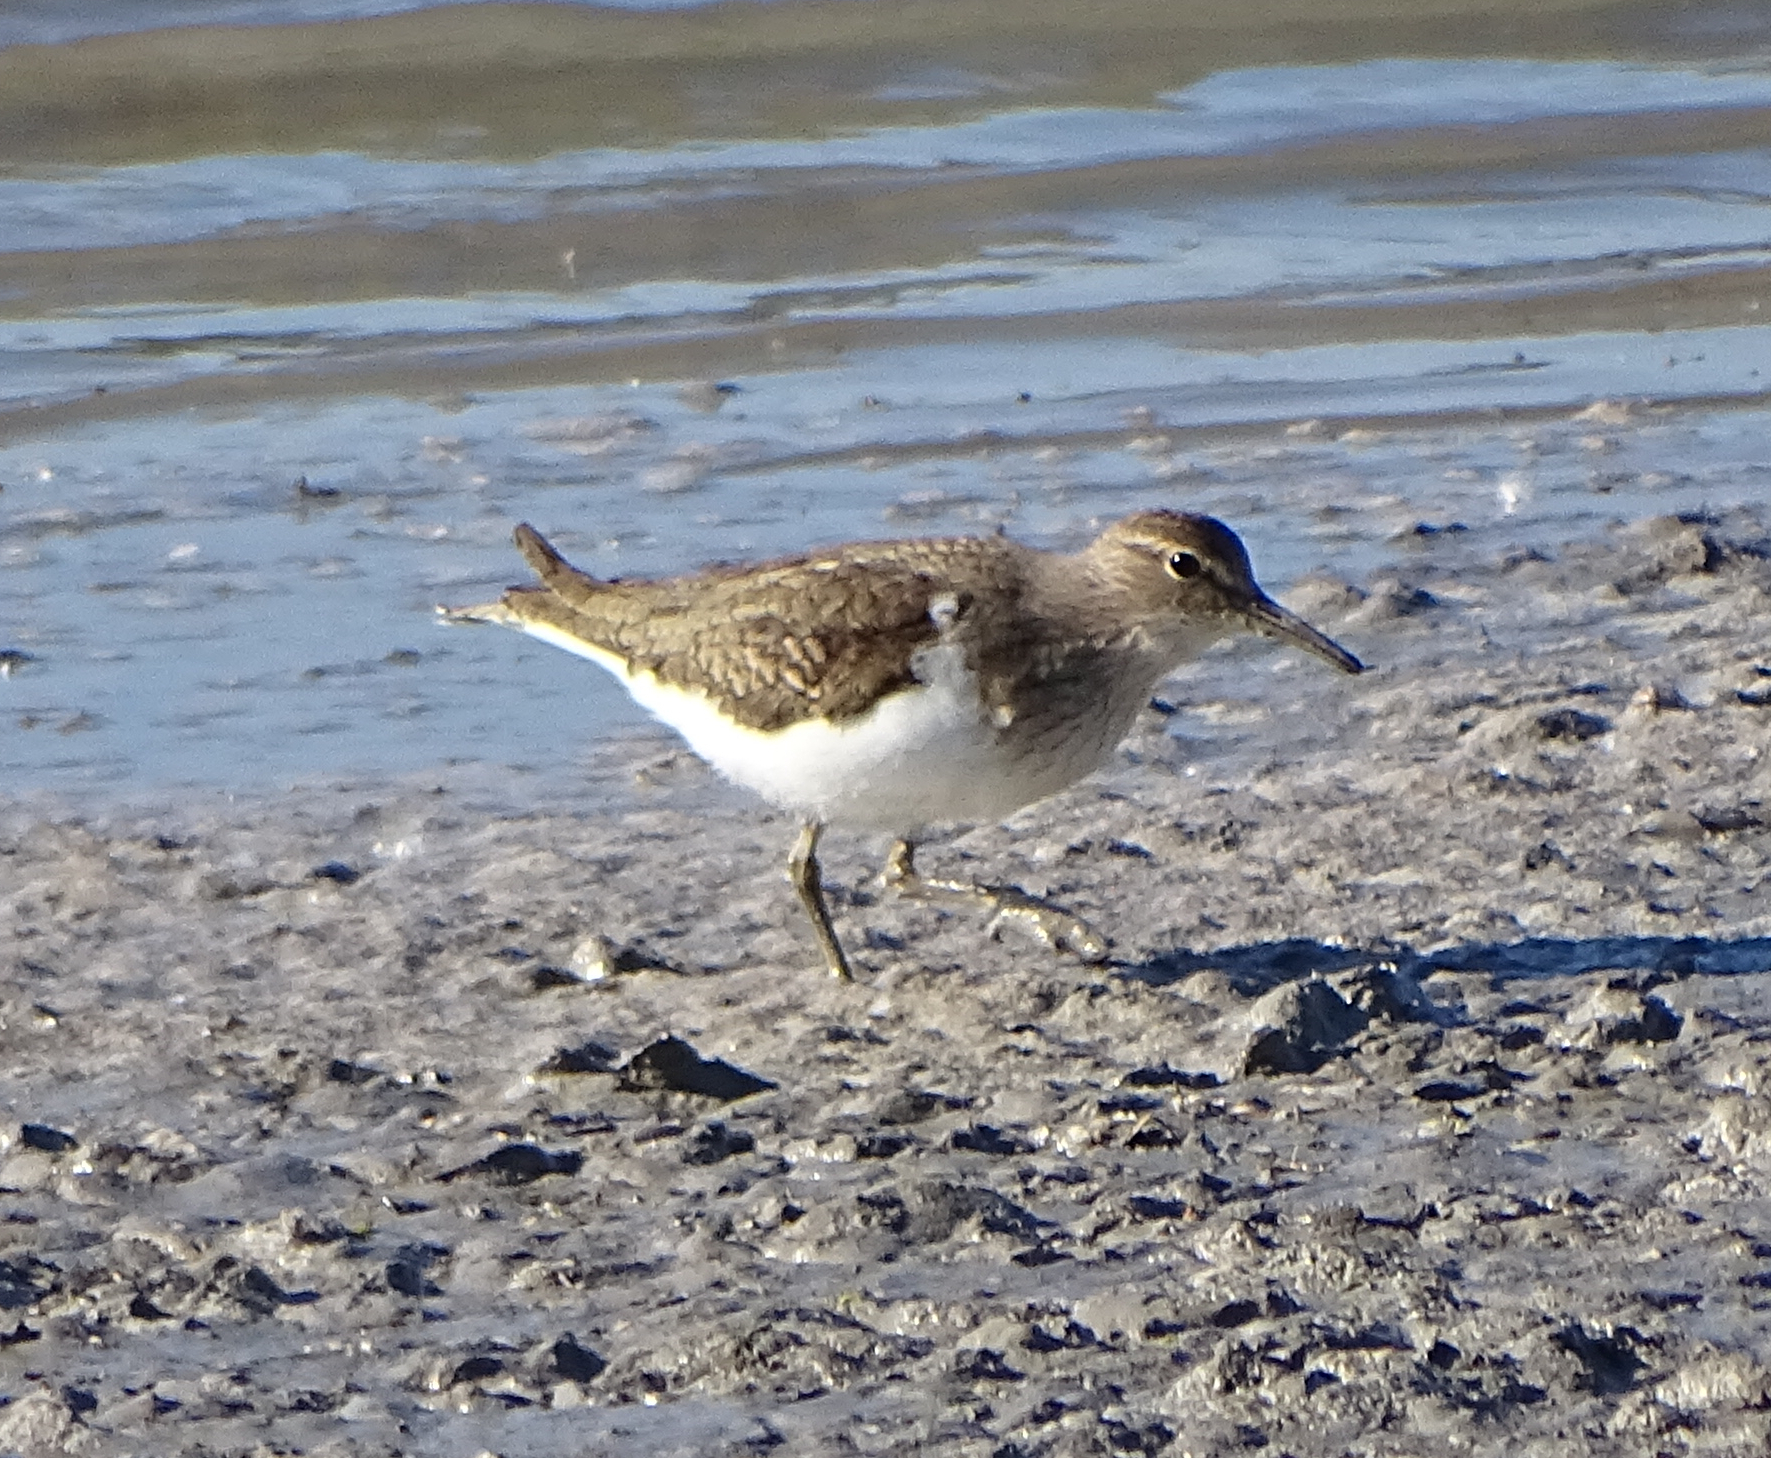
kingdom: Animalia
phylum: Chordata
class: Aves
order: Charadriiformes
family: Scolopacidae
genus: Actitis
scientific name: Actitis hypoleucos
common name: Common sandpiper
